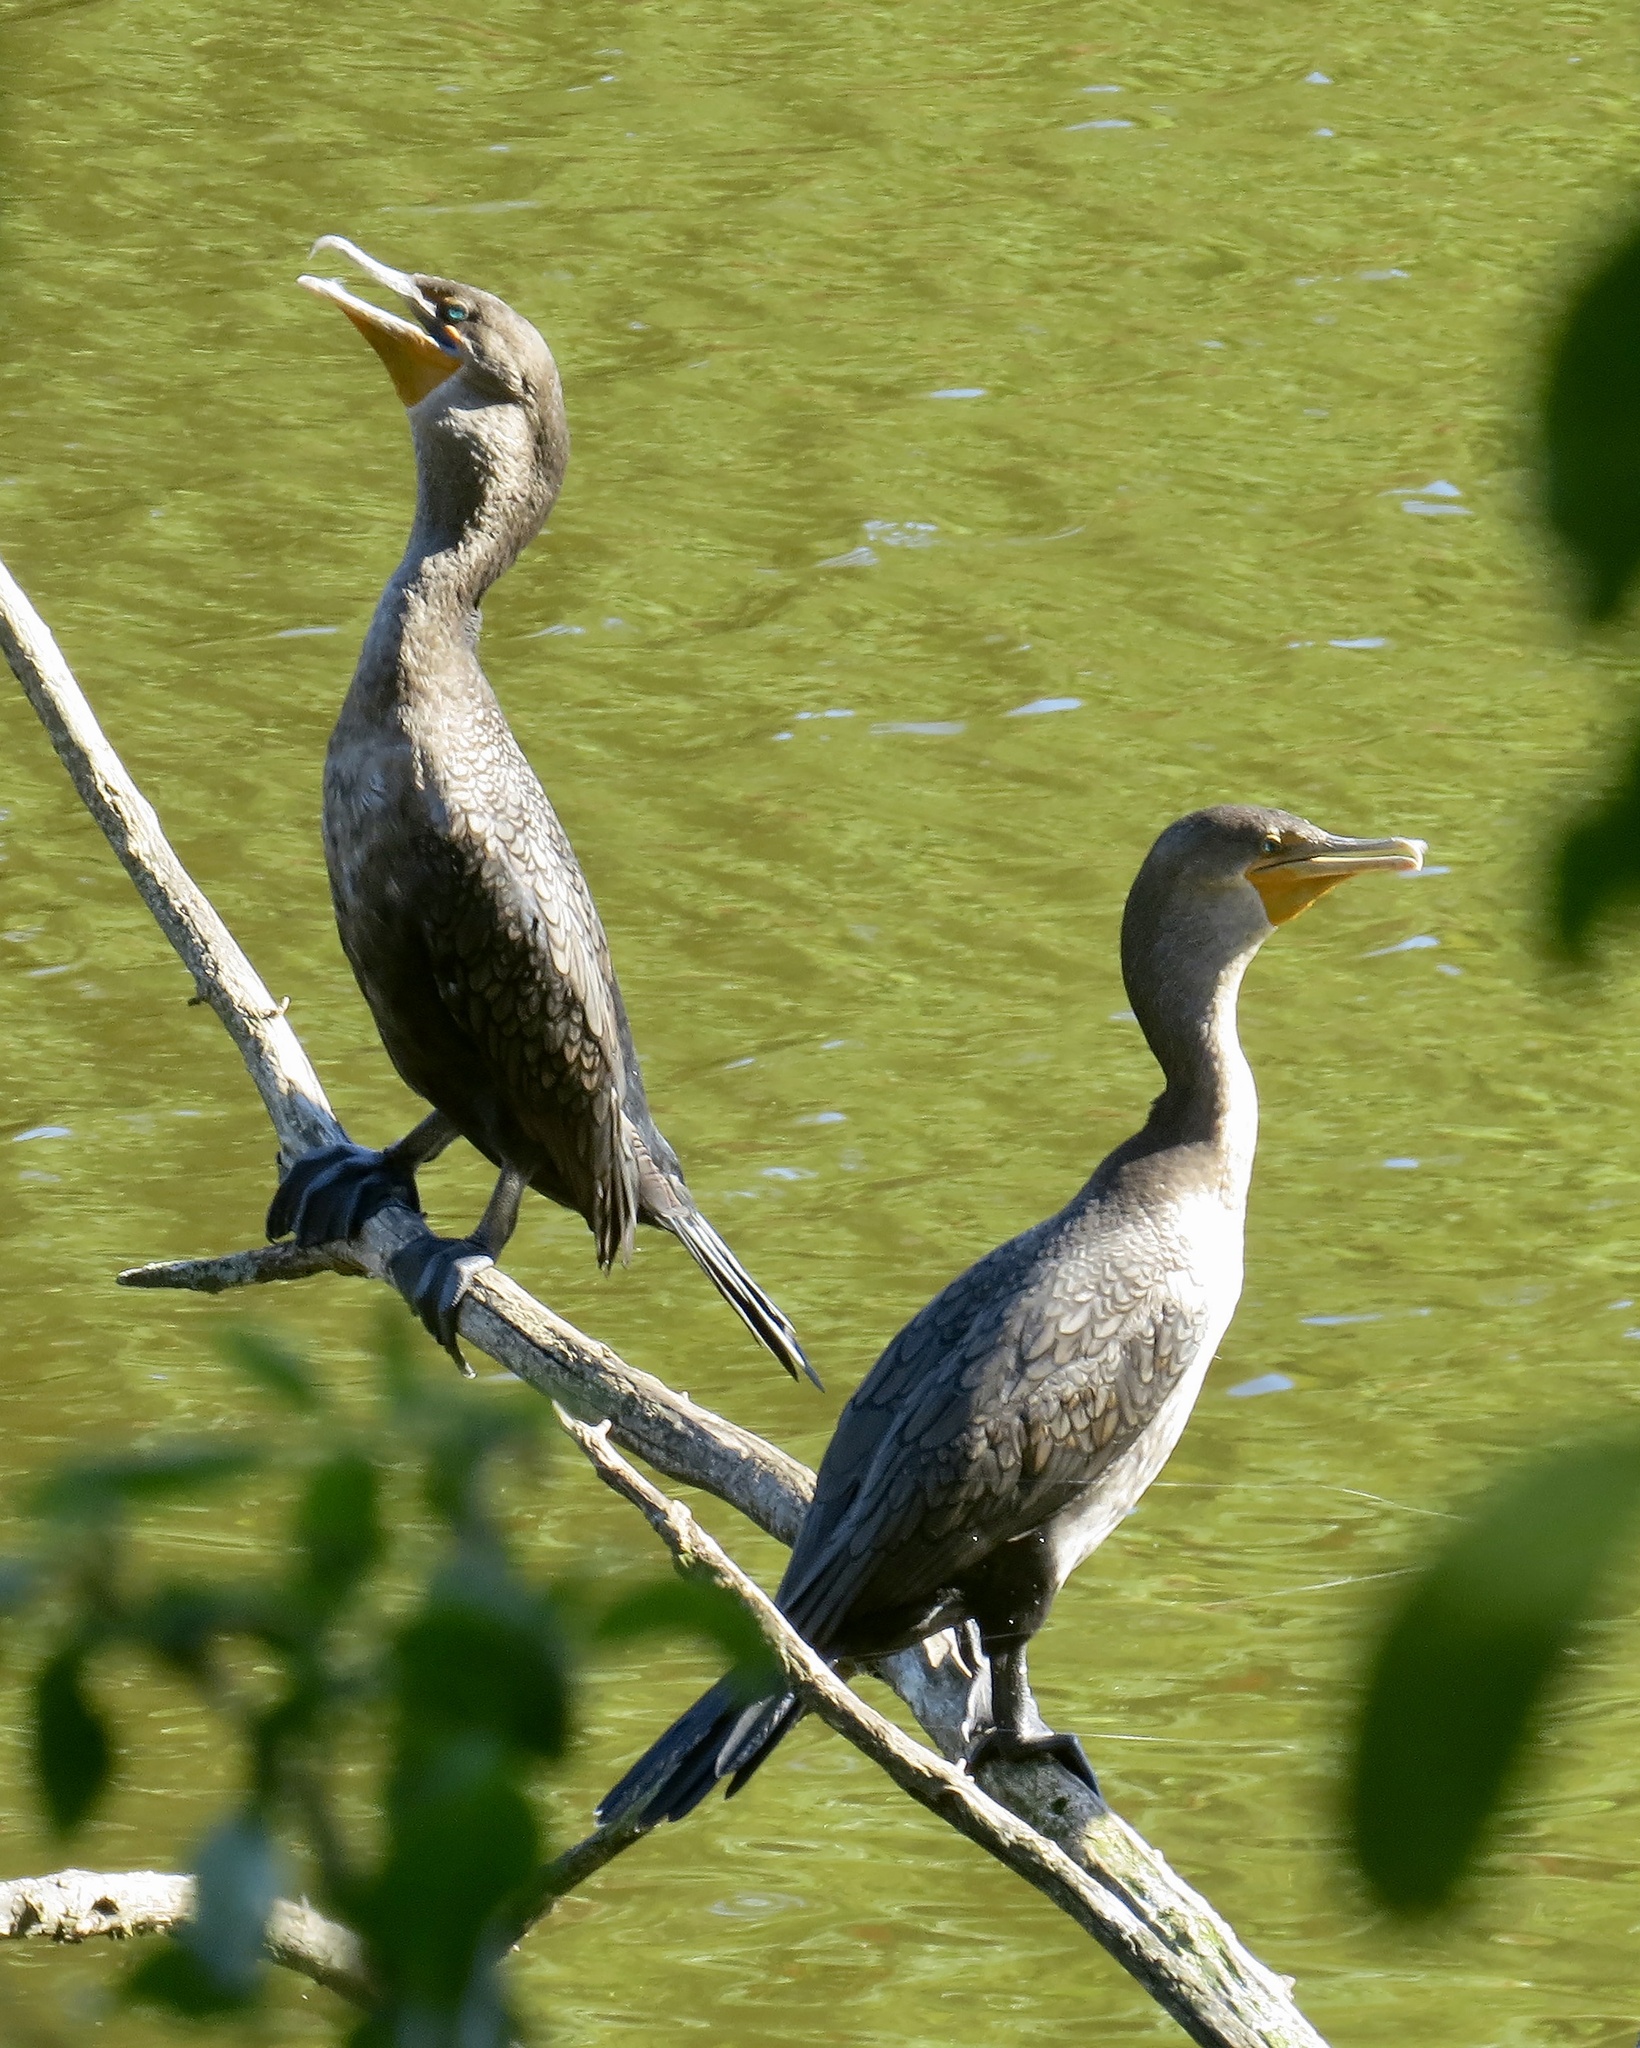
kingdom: Animalia
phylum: Chordata
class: Aves
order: Suliformes
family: Phalacrocoracidae
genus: Phalacrocorax
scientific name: Phalacrocorax auritus
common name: Double-crested cormorant
